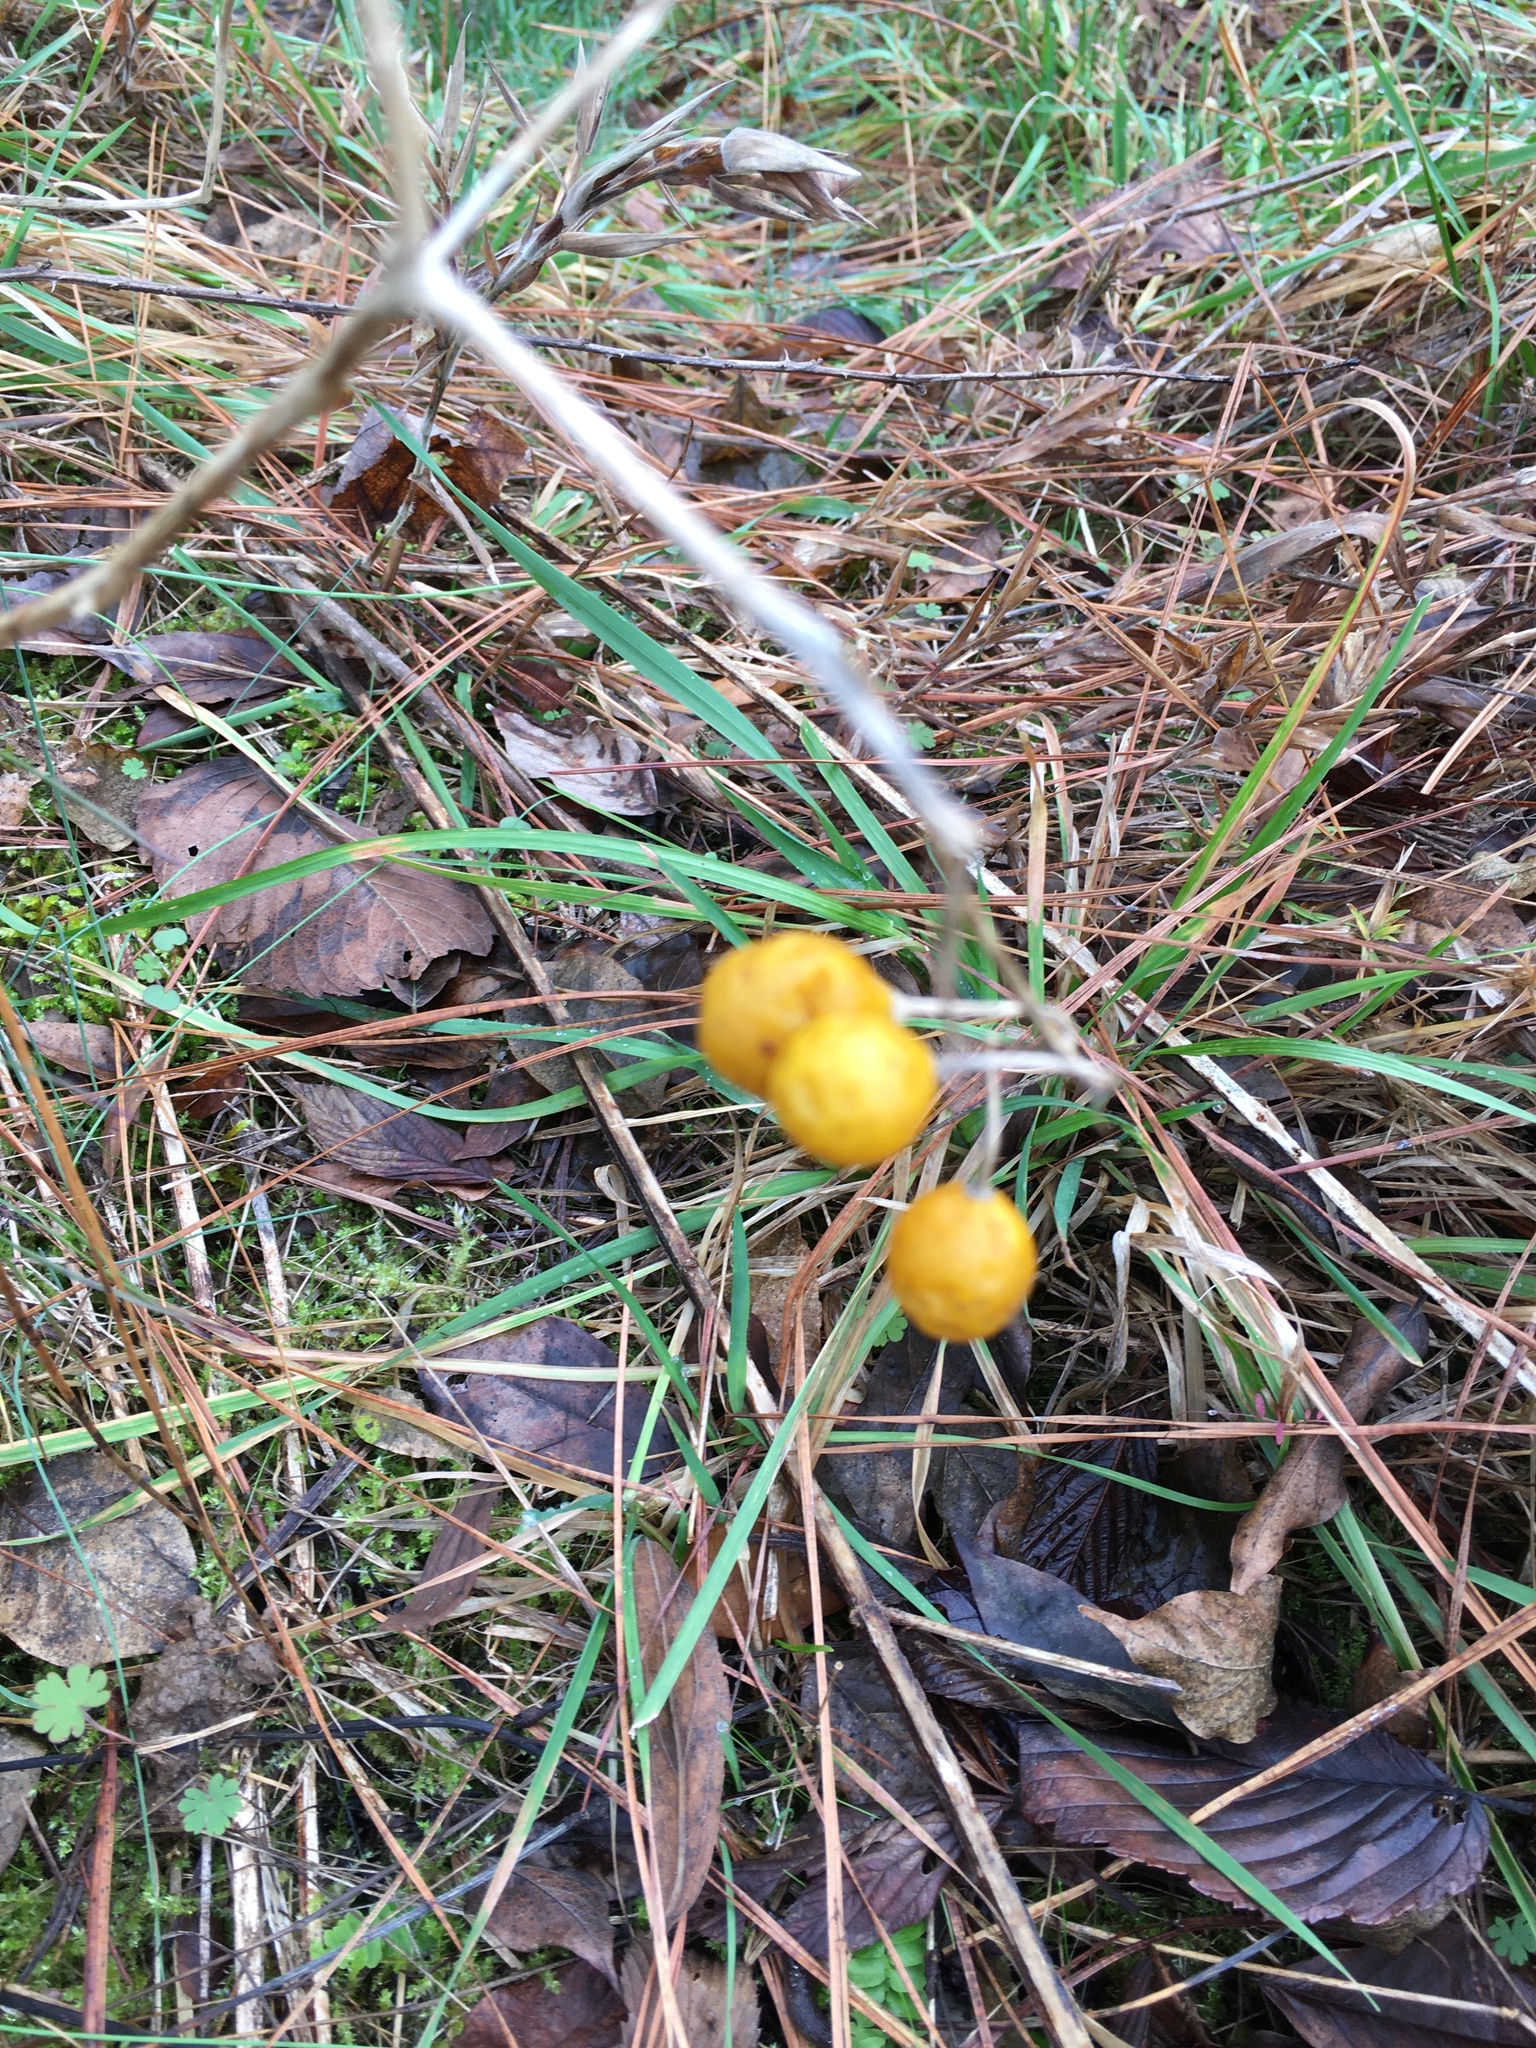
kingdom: Plantae
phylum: Tracheophyta
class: Magnoliopsida
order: Solanales
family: Solanaceae
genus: Solanum
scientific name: Solanum carolinense
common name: Horse-nettle
